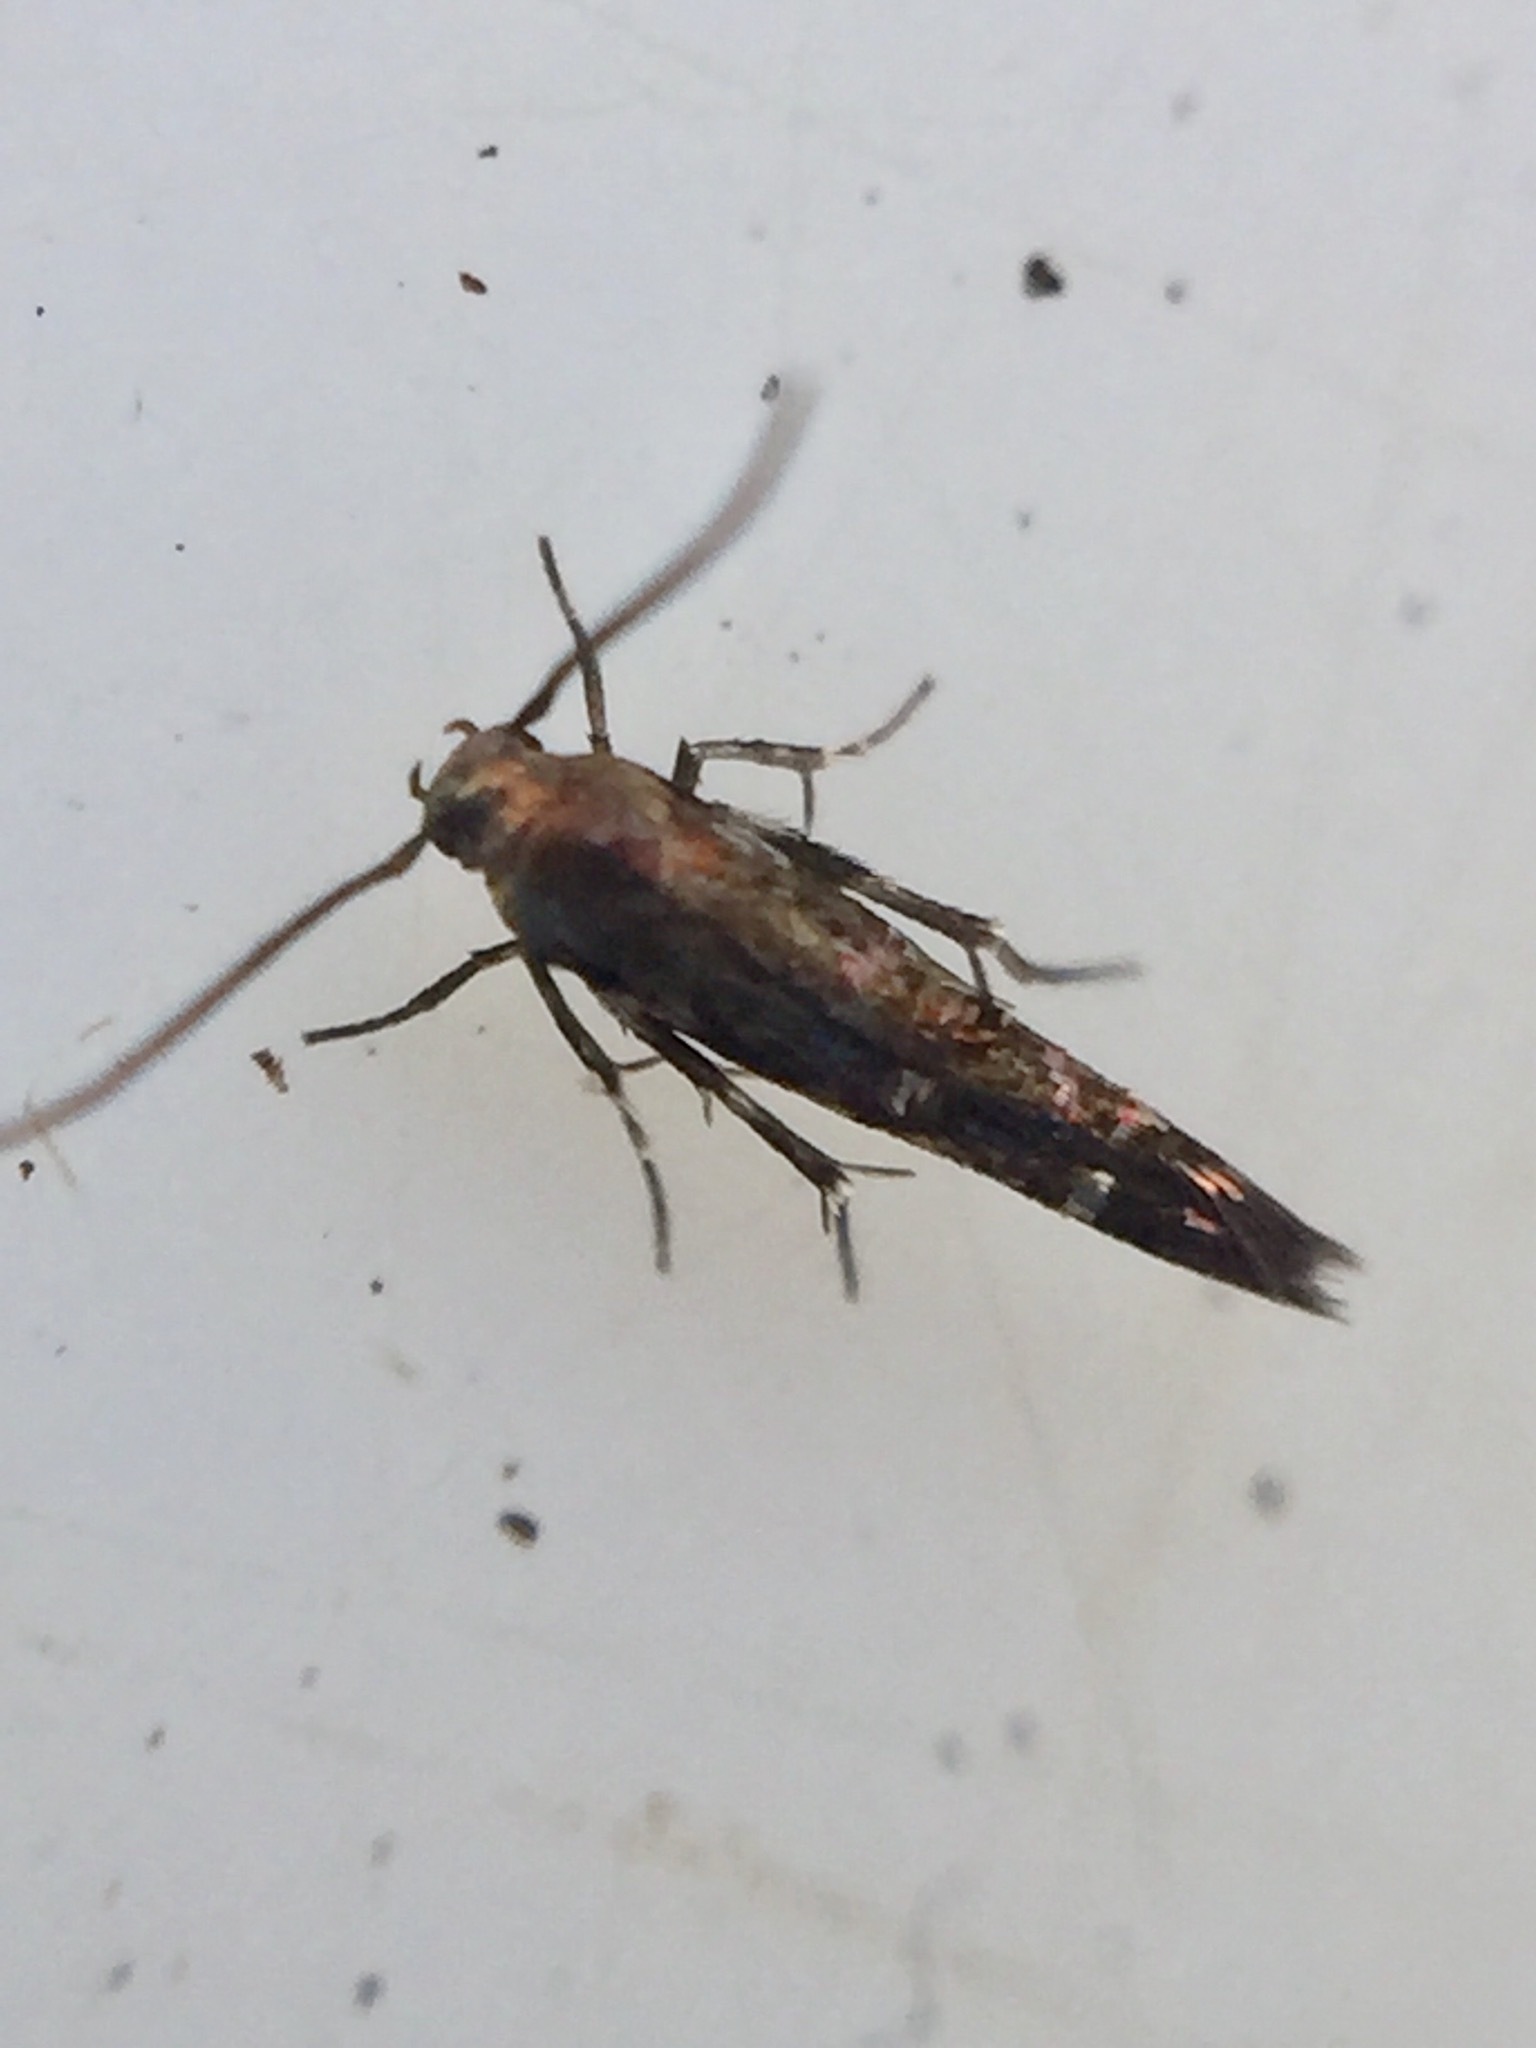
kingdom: Animalia
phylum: Arthropoda
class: Insecta
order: Lepidoptera
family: Momphidae
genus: Zapyrastra
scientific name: Zapyrastra calliphana
